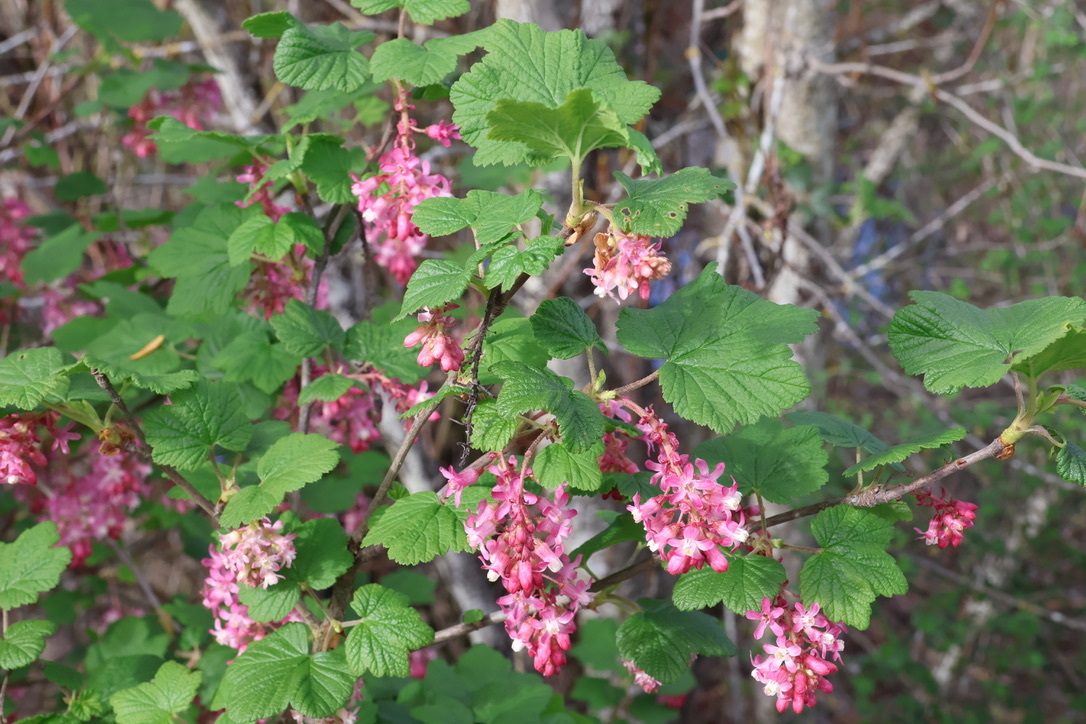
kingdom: Plantae
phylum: Tracheophyta
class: Magnoliopsida
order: Saxifragales
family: Grossulariaceae
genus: Ribes
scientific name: Ribes sanguineum
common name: Flowering currant
